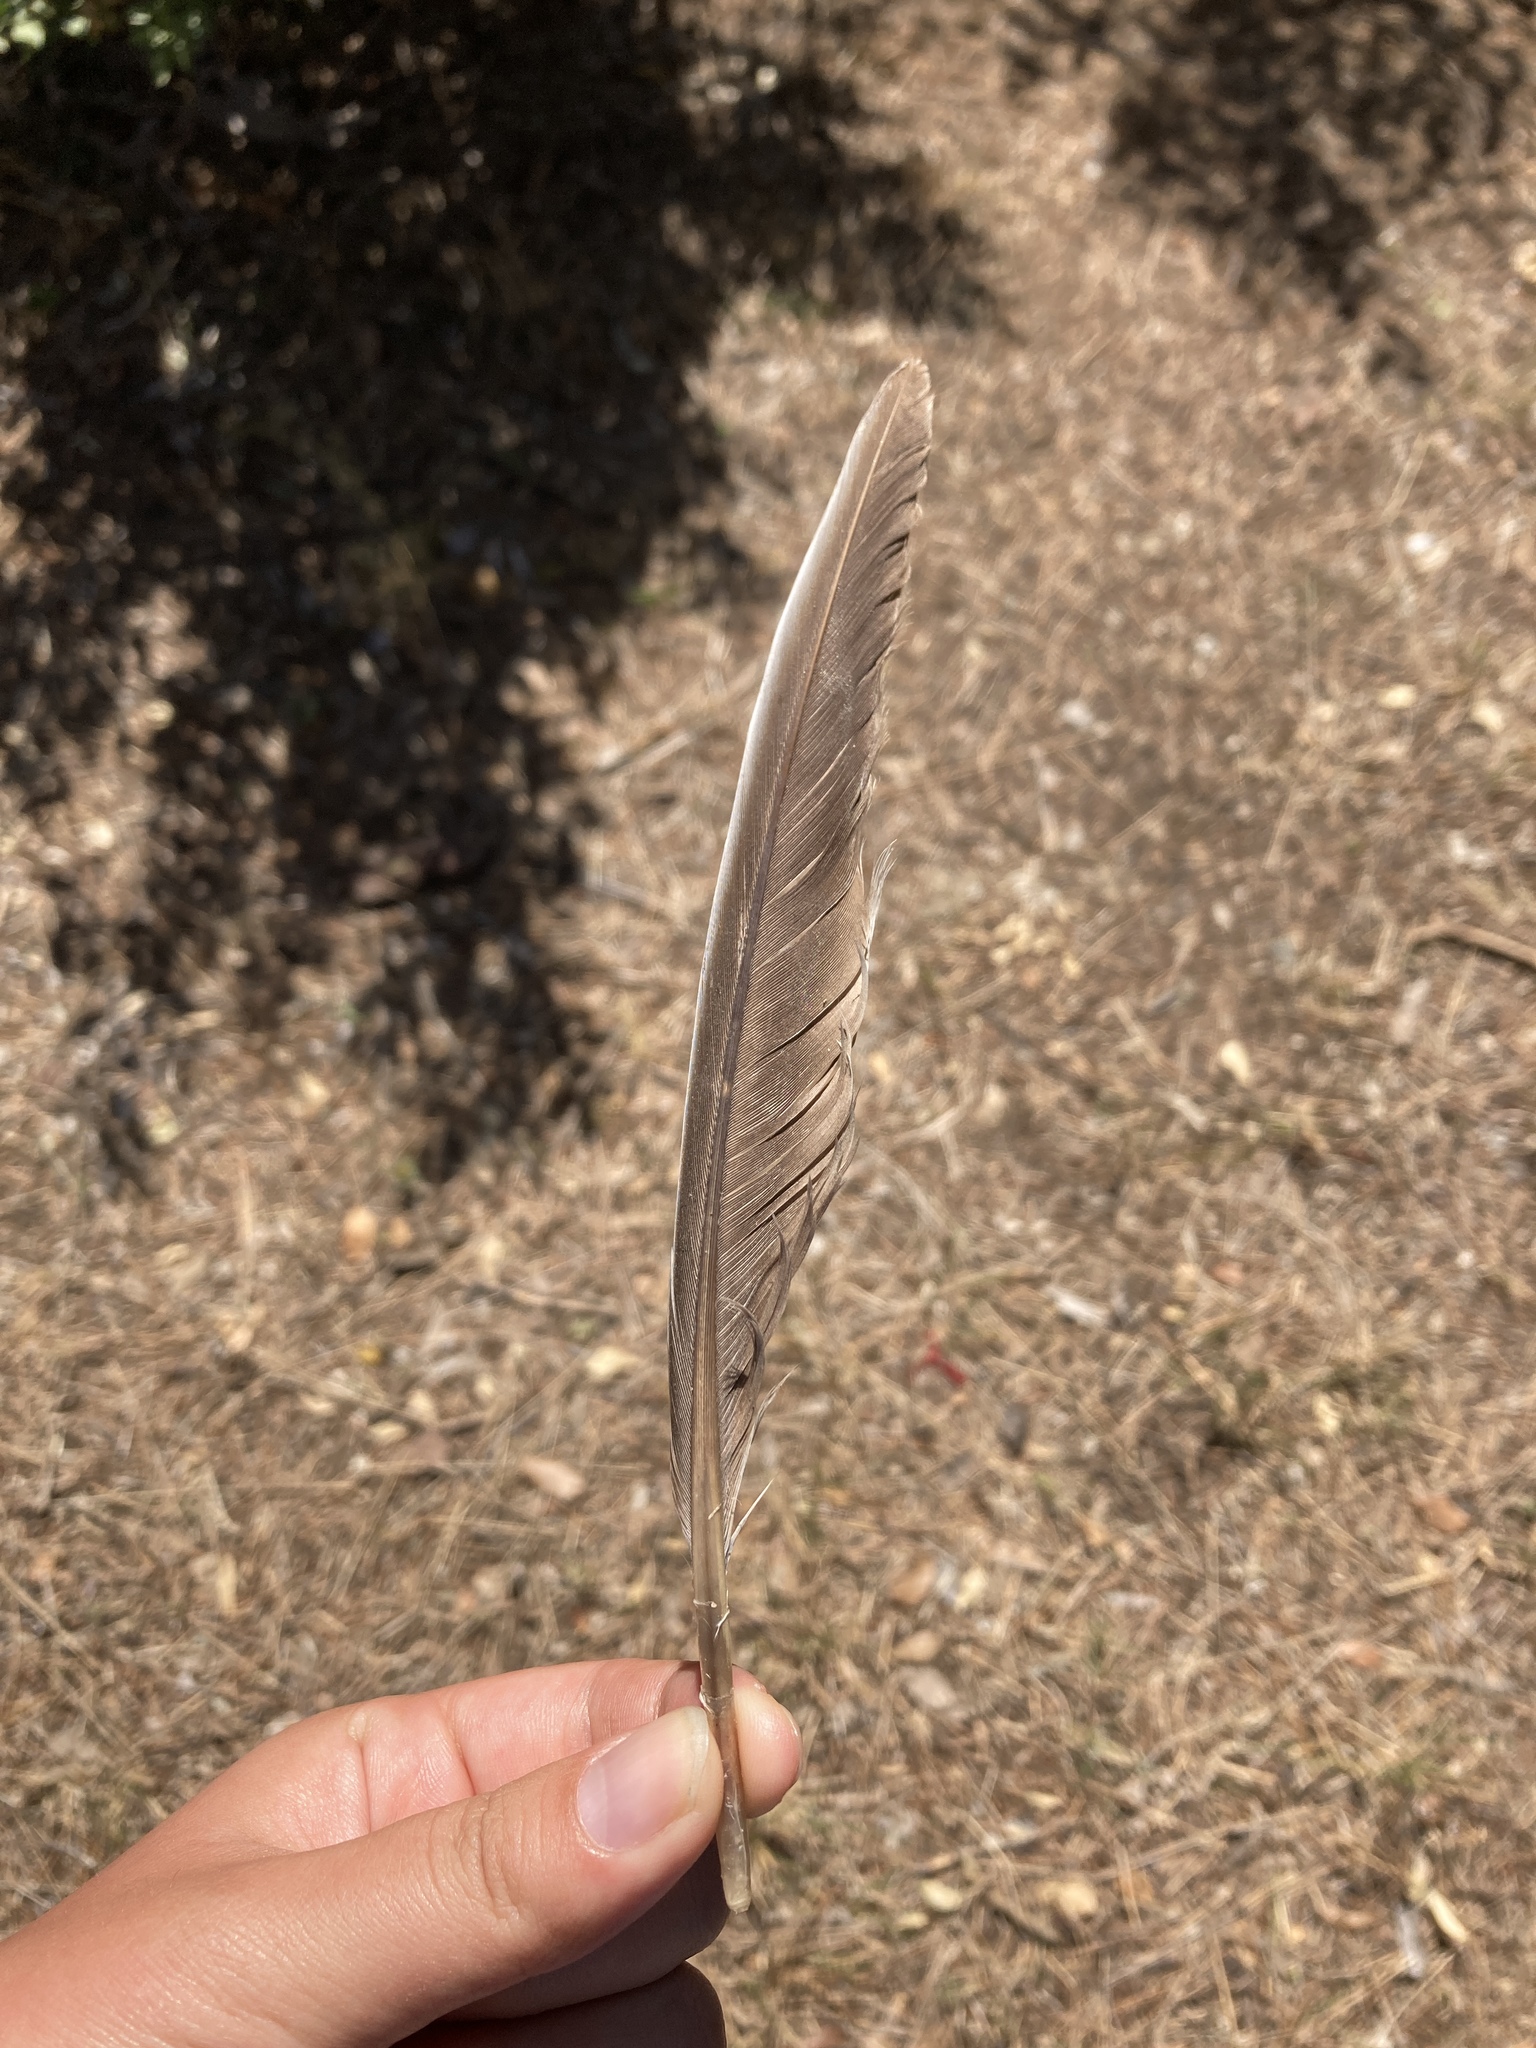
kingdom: Animalia
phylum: Chordata
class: Aves
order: Columbiformes
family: Columbidae
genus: Columba
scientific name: Columba palumbus
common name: Common wood pigeon
